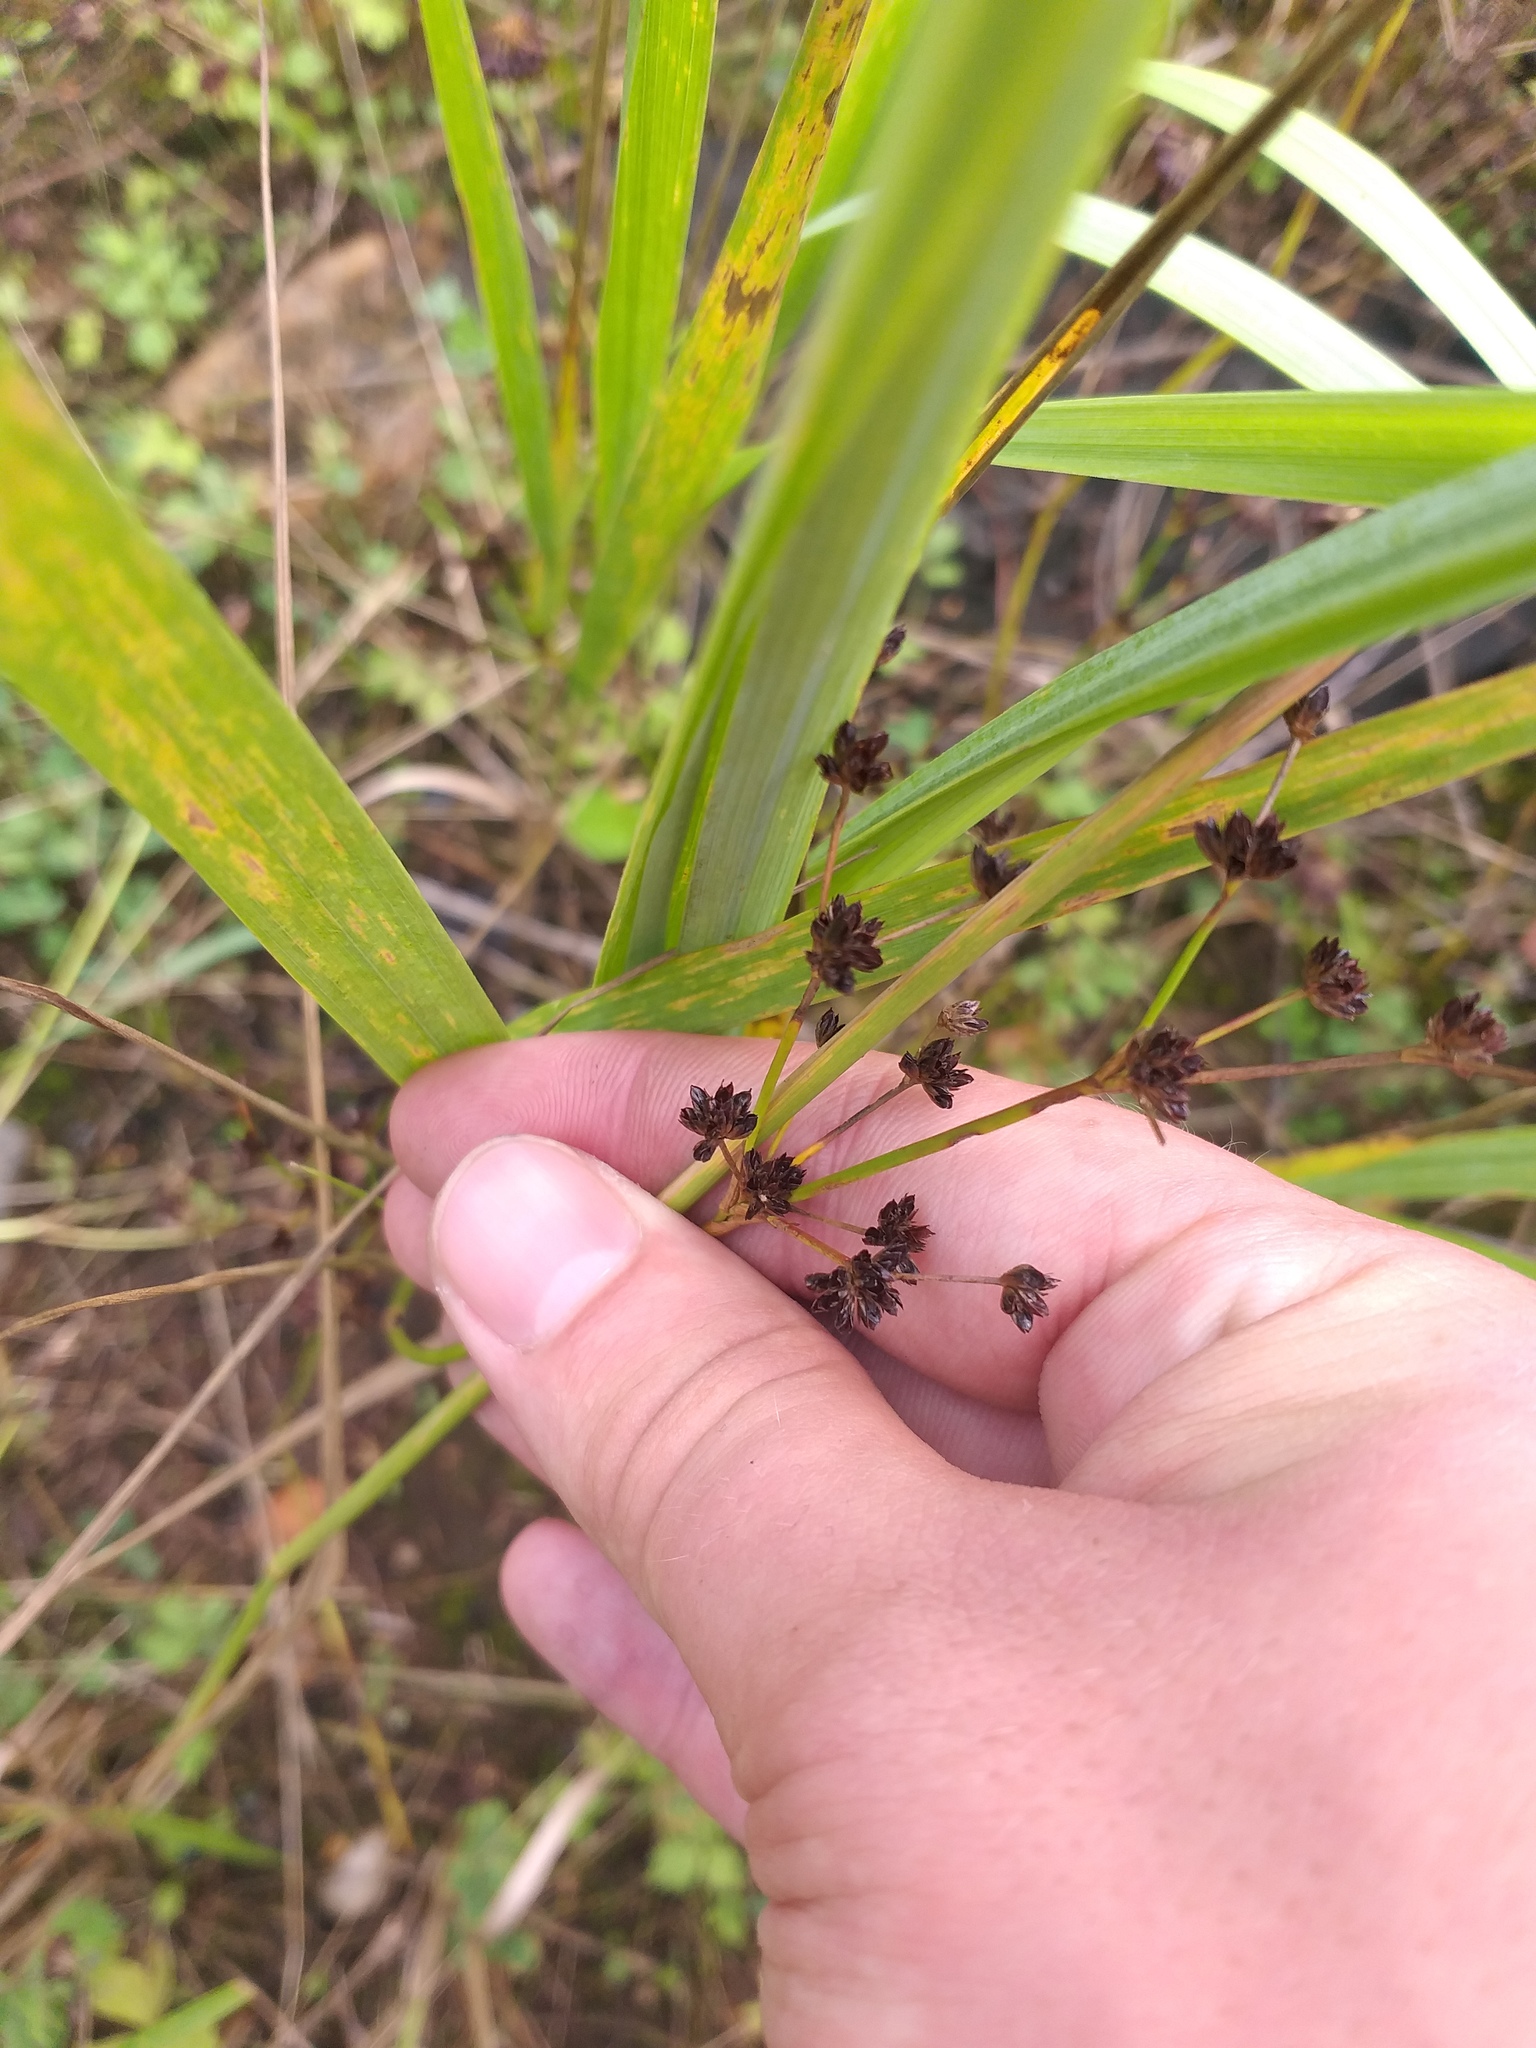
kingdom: Plantae
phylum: Tracheophyta
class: Liliopsida
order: Poales
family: Juncaceae
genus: Juncus
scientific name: Juncus articulatus
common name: Jointed rush
